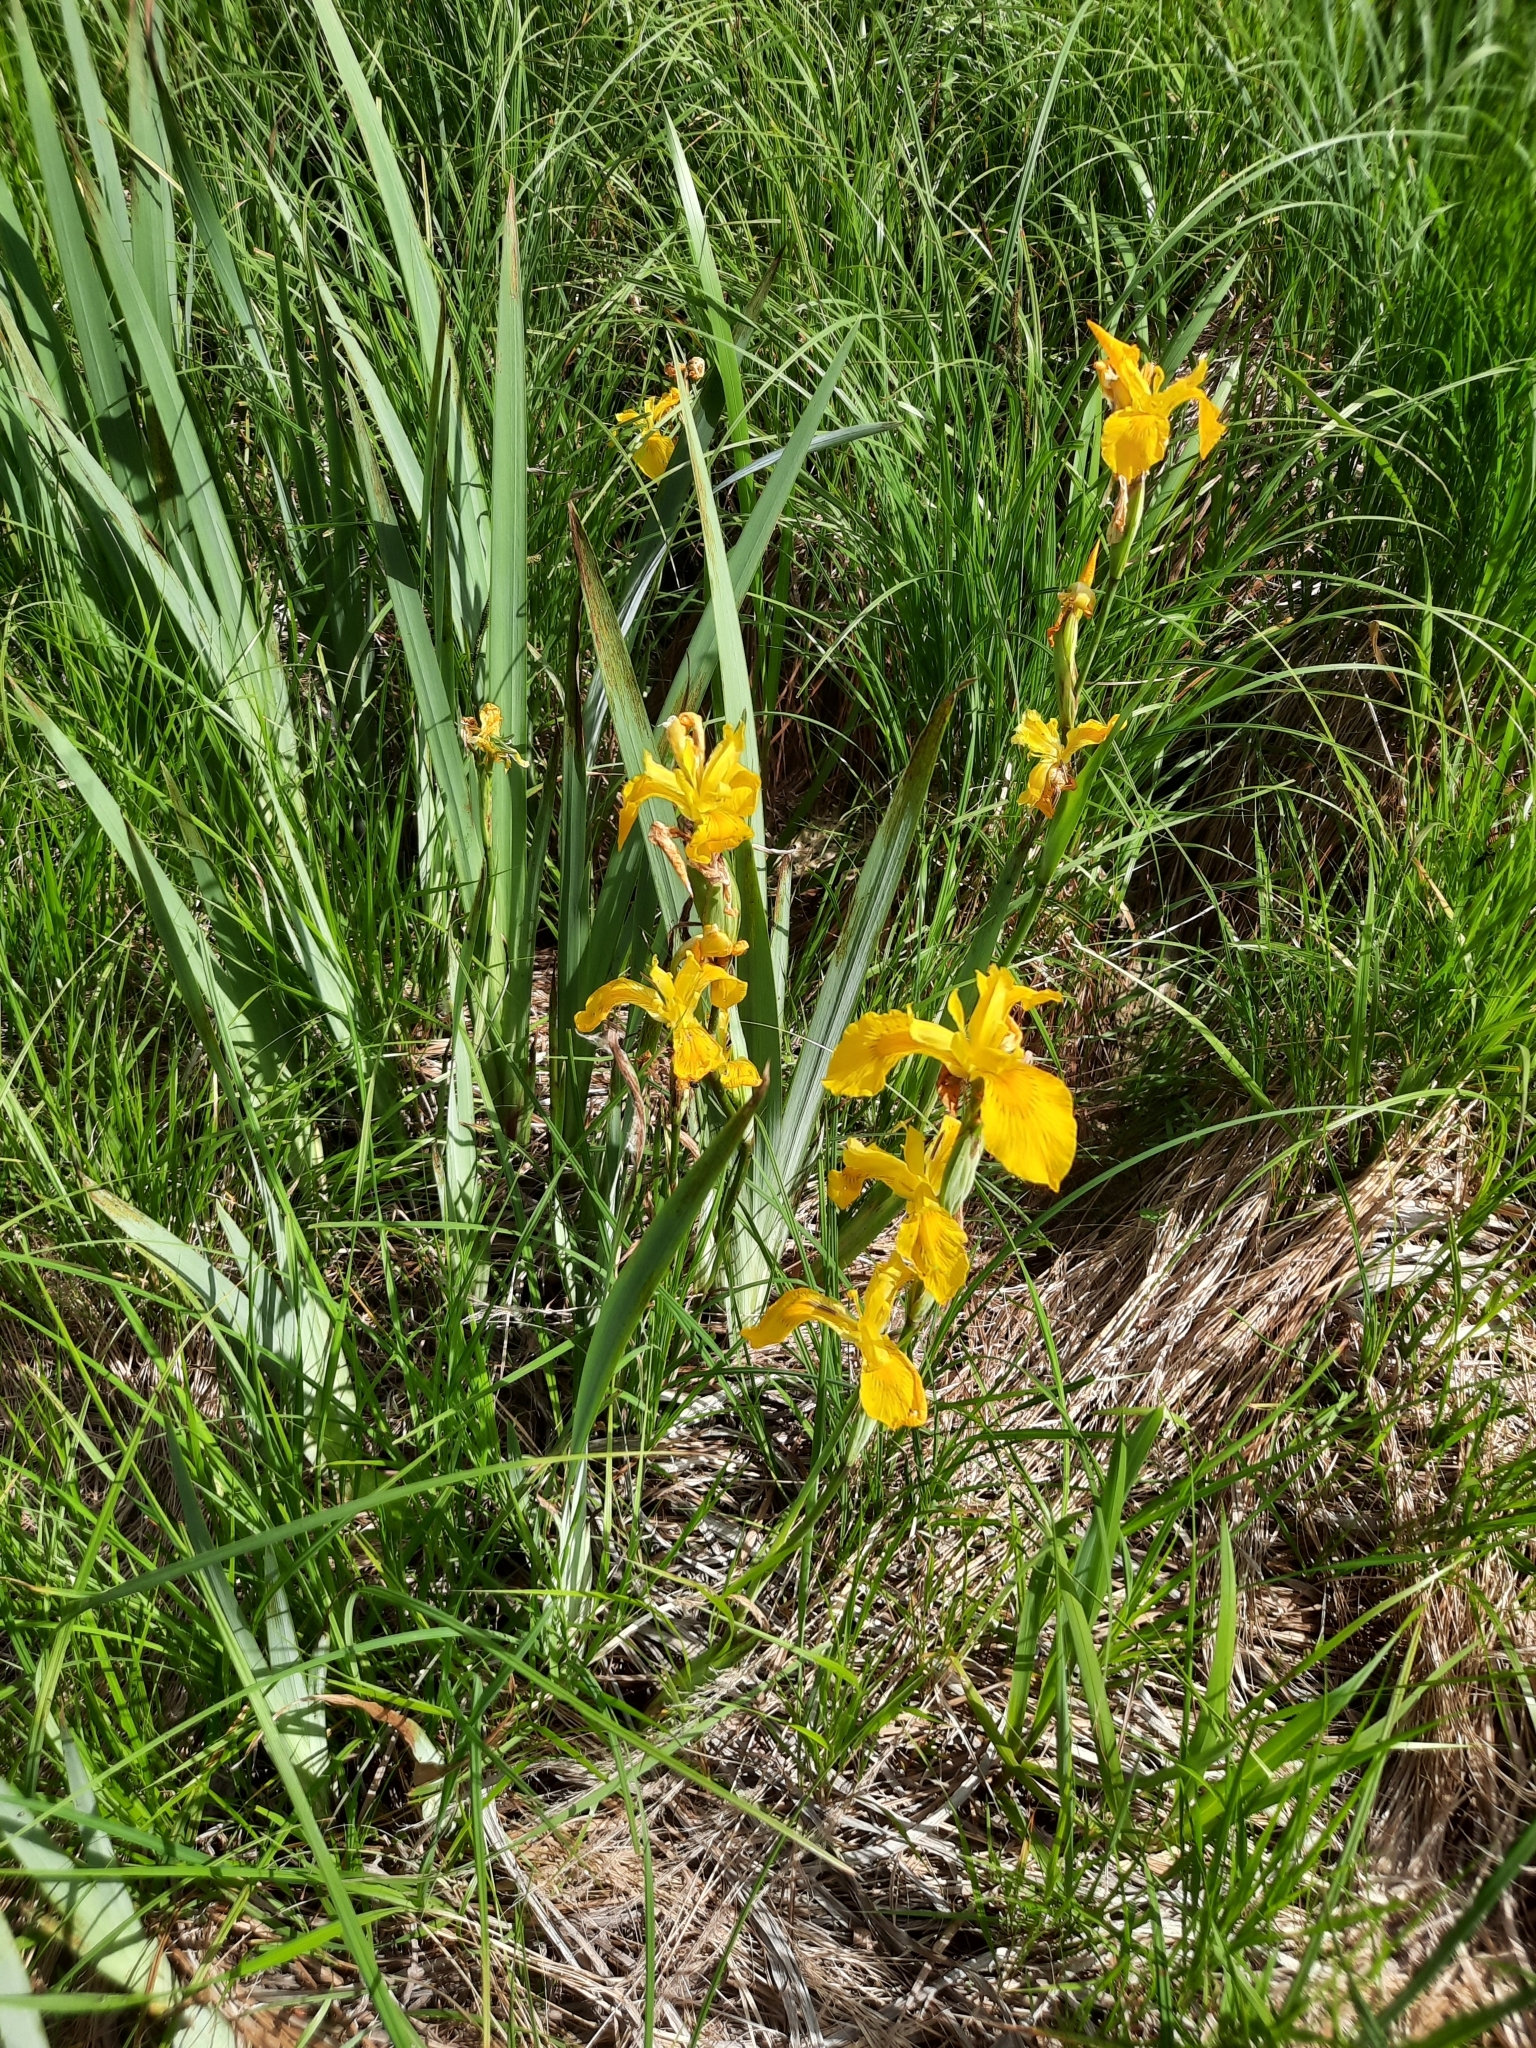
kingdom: Plantae
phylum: Tracheophyta
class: Liliopsida
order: Asparagales
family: Iridaceae
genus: Iris
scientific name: Iris pseudacorus
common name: Yellow flag
